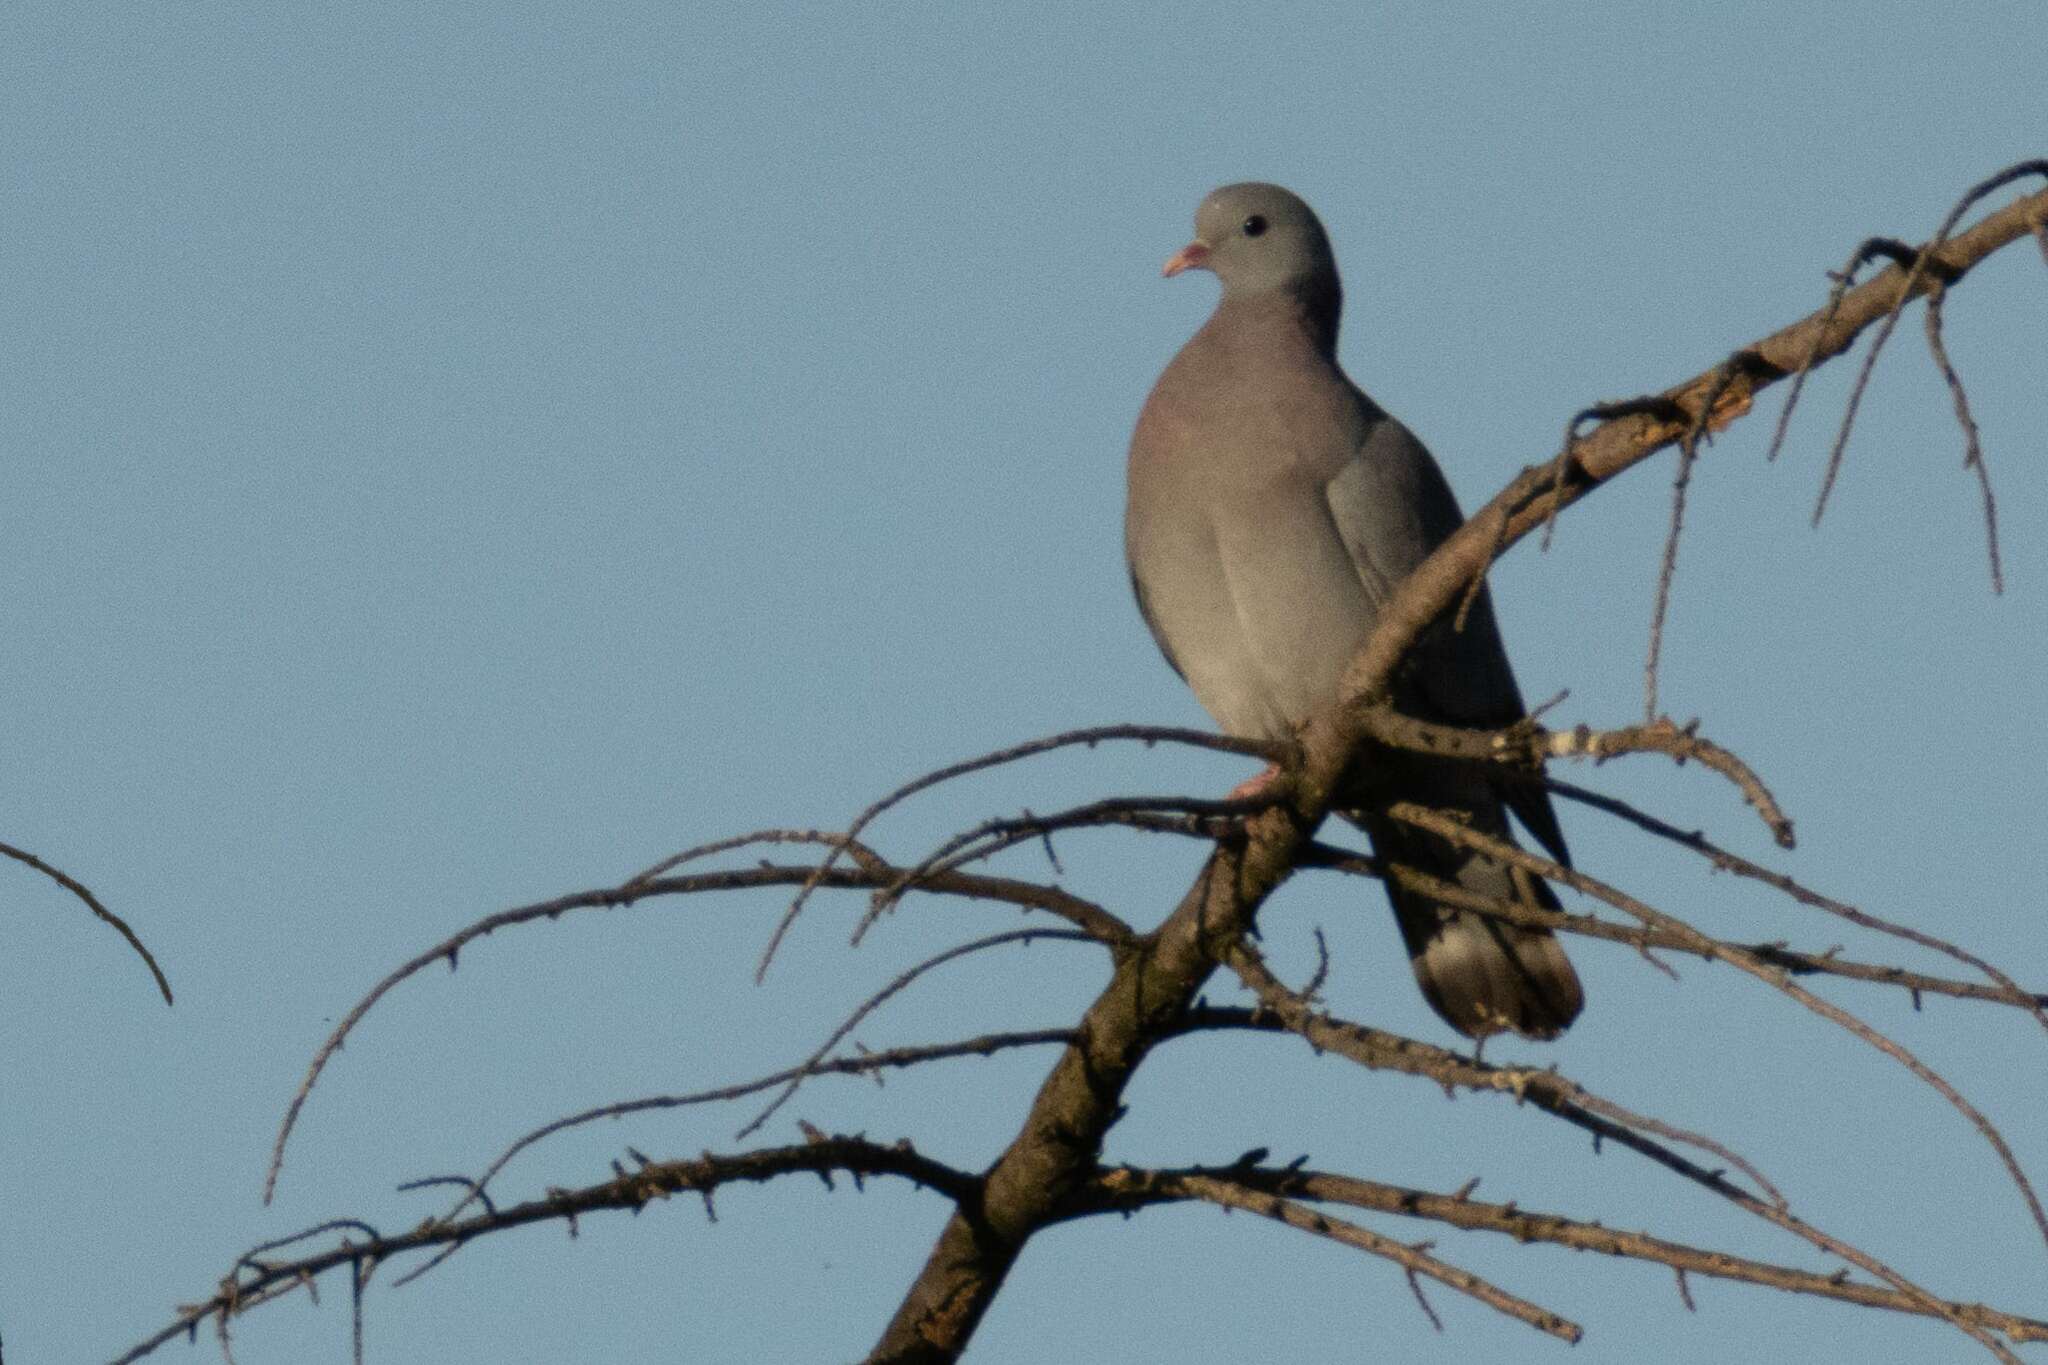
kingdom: Animalia
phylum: Chordata
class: Aves
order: Columbiformes
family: Columbidae
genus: Columba
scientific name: Columba oenas
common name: Stock dove
